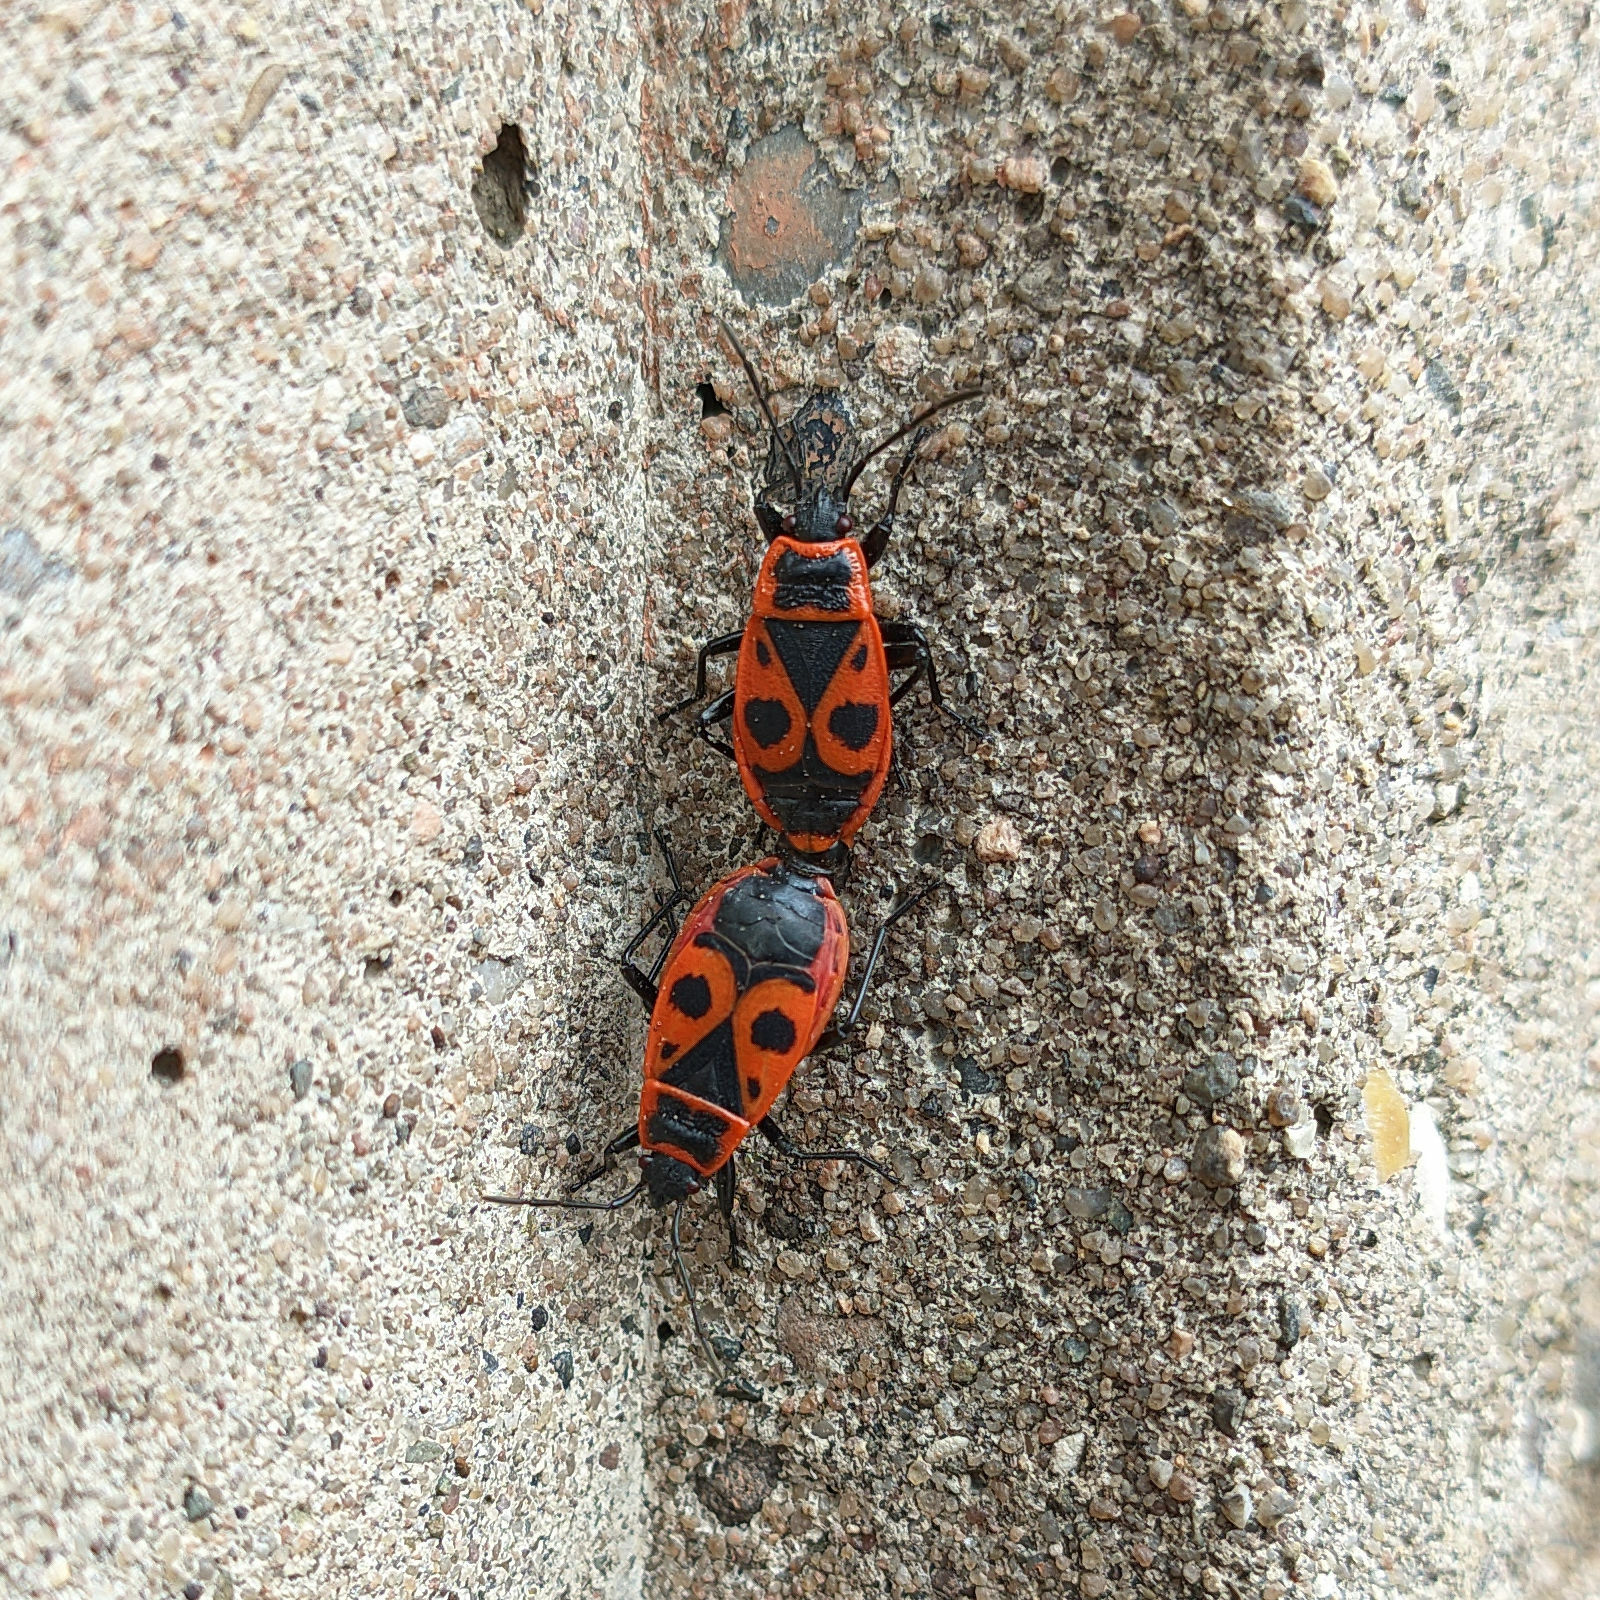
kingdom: Animalia
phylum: Arthropoda
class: Insecta
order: Hemiptera
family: Pyrrhocoridae
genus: Pyrrhocoris
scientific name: Pyrrhocoris apterus
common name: Firebug
